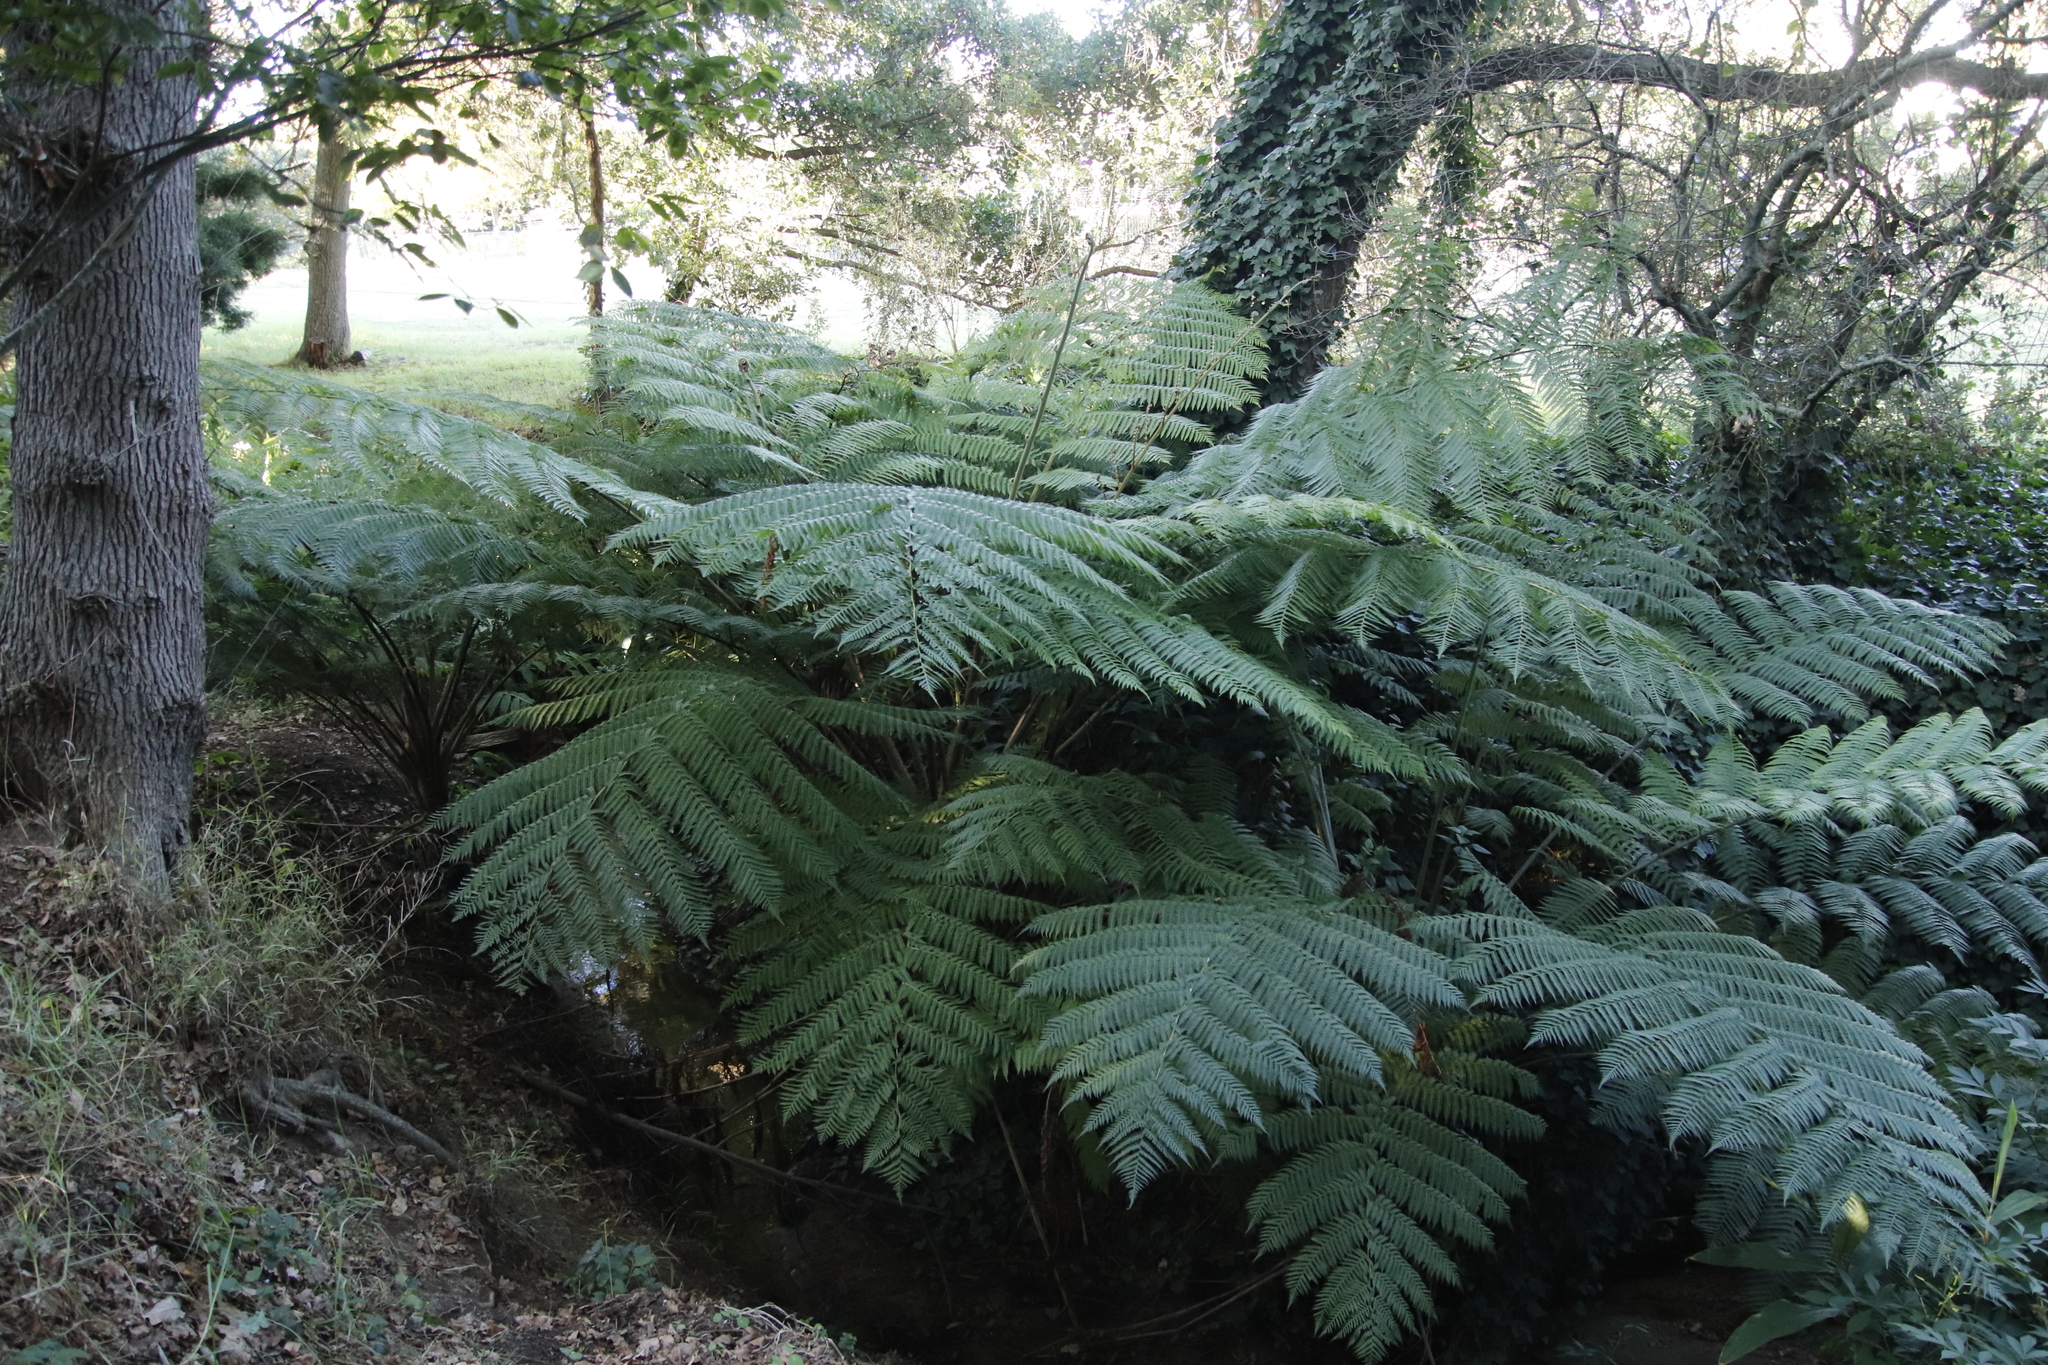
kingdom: Plantae
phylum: Tracheophyta
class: Polypodiopsida
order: Cyatheales
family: Cyatheaceae
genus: Sphaeropteris
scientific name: Sphaeropteris cooperi
